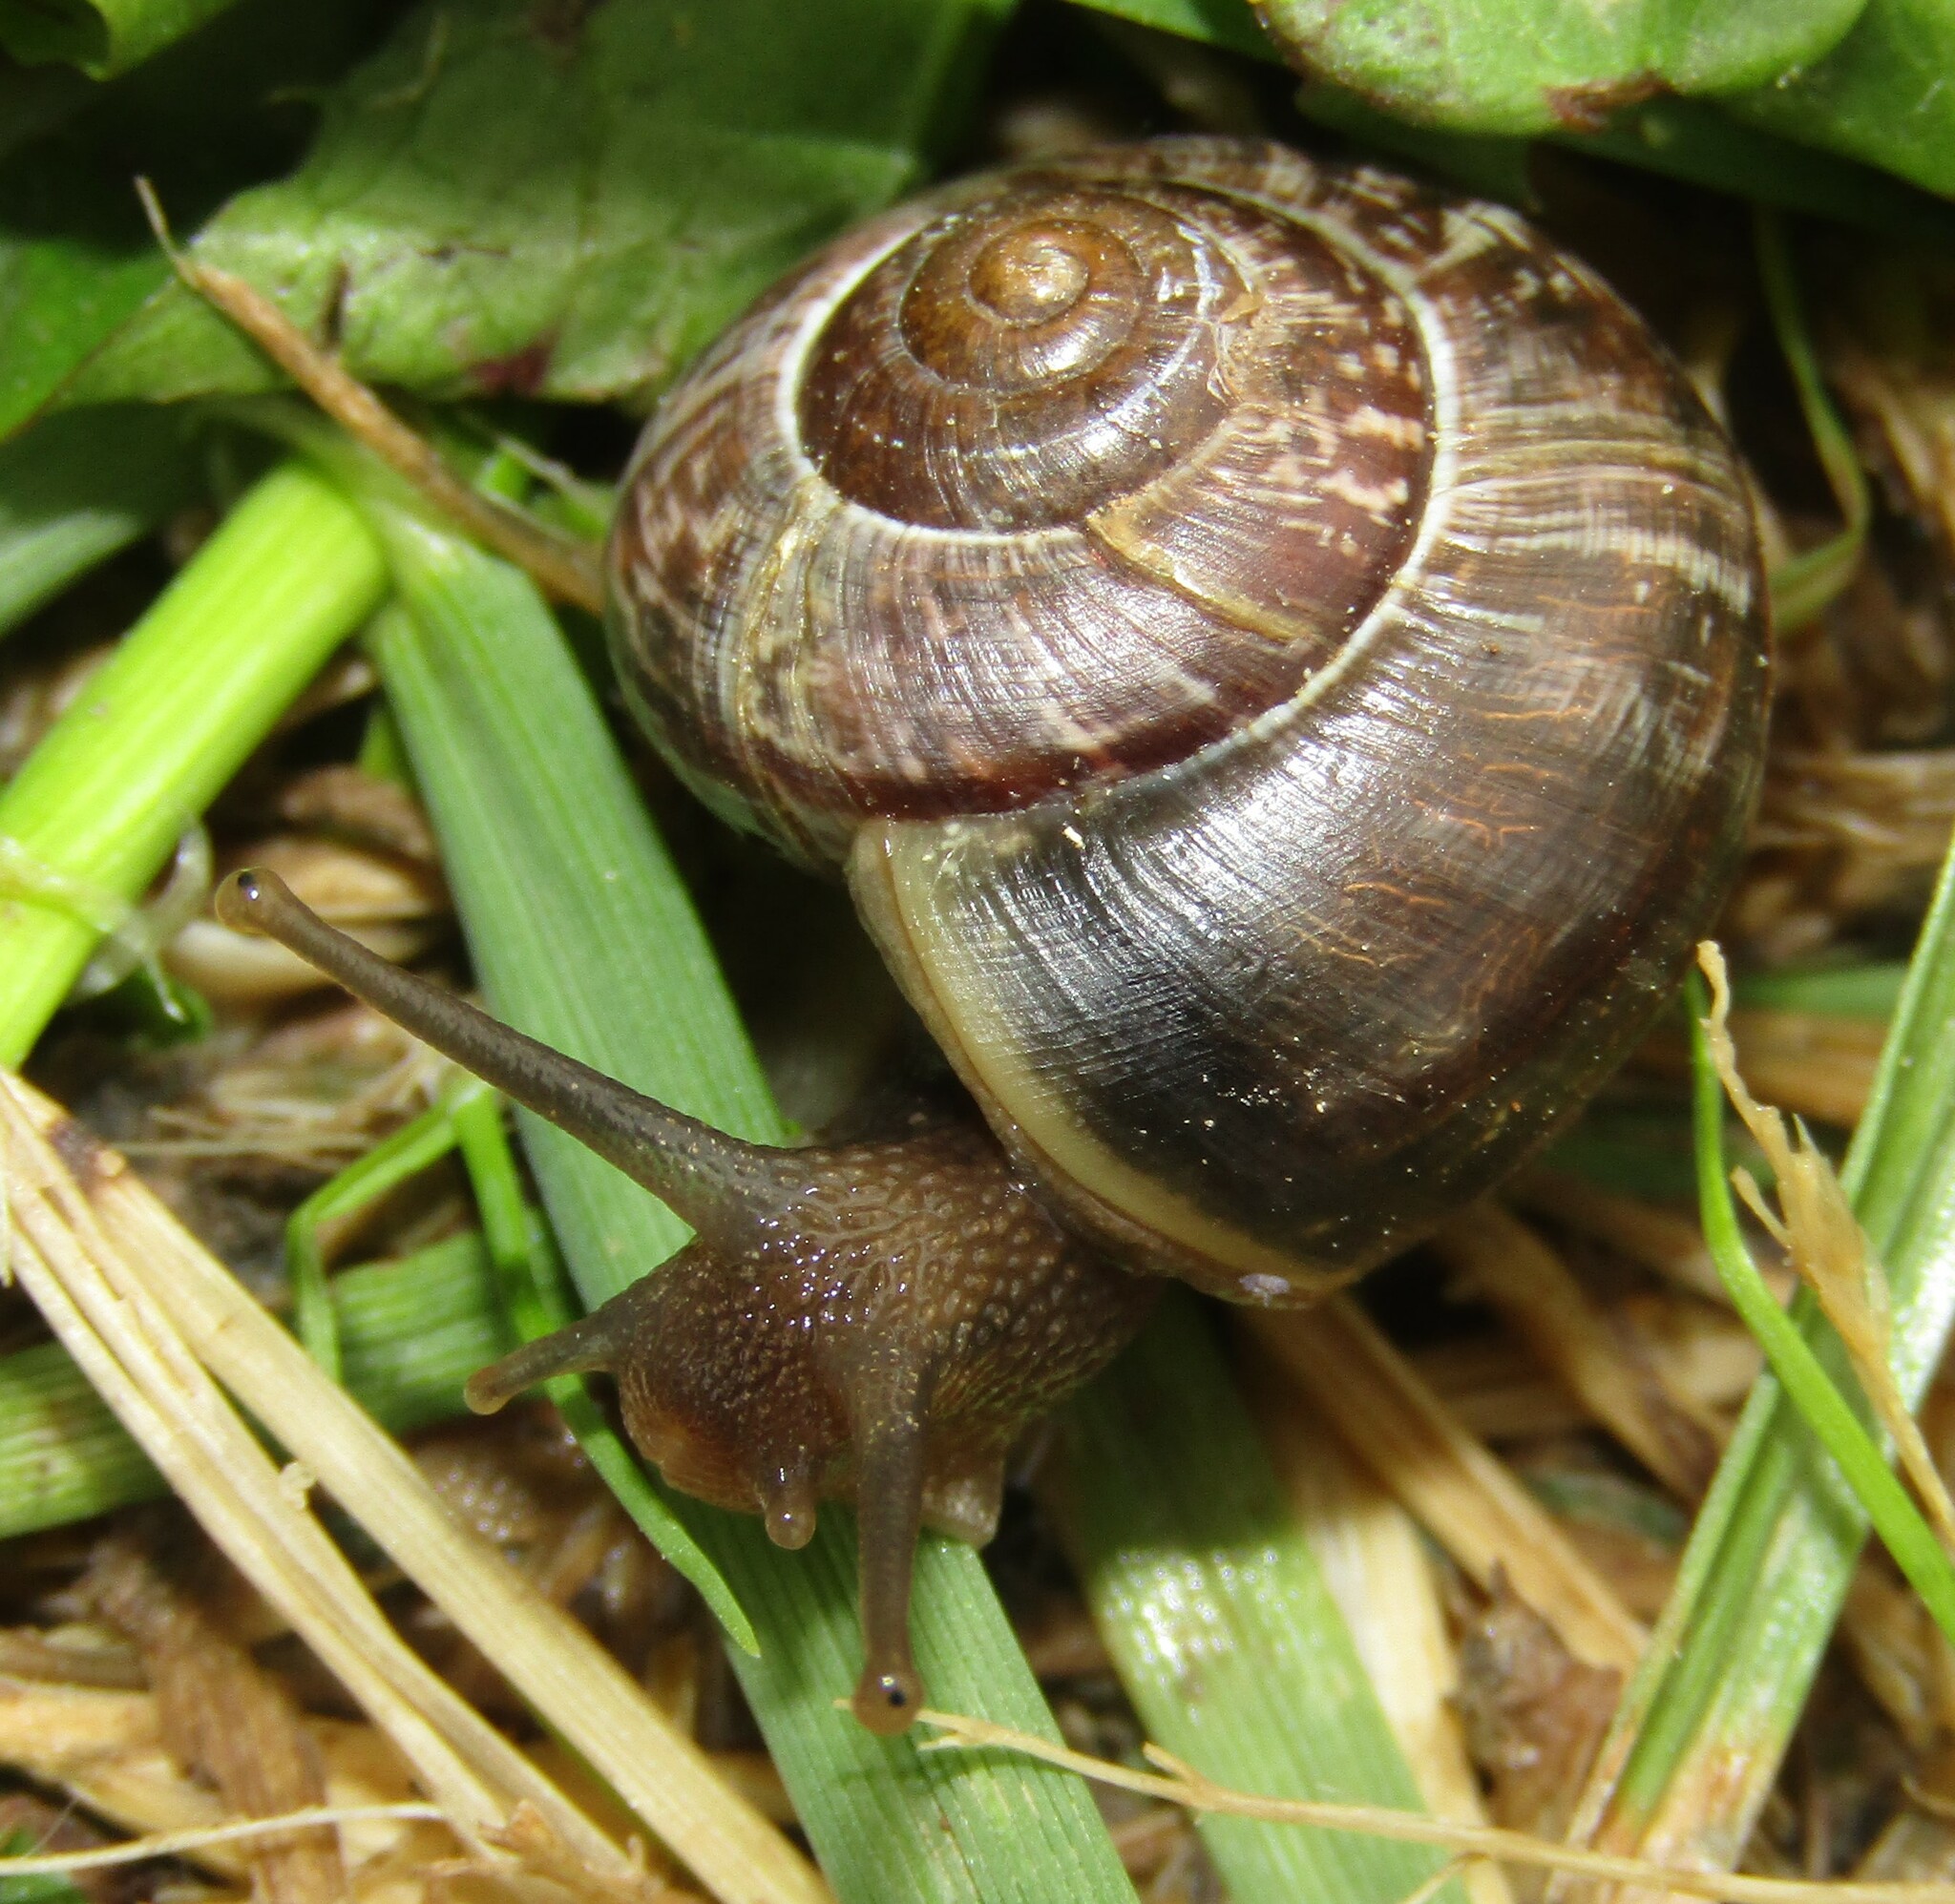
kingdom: Animalia
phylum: Mollusca
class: Gastropoda
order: Stylommatophora
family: Helicidae
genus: Arianta
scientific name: Arianta arbustorum
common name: Copse snail
